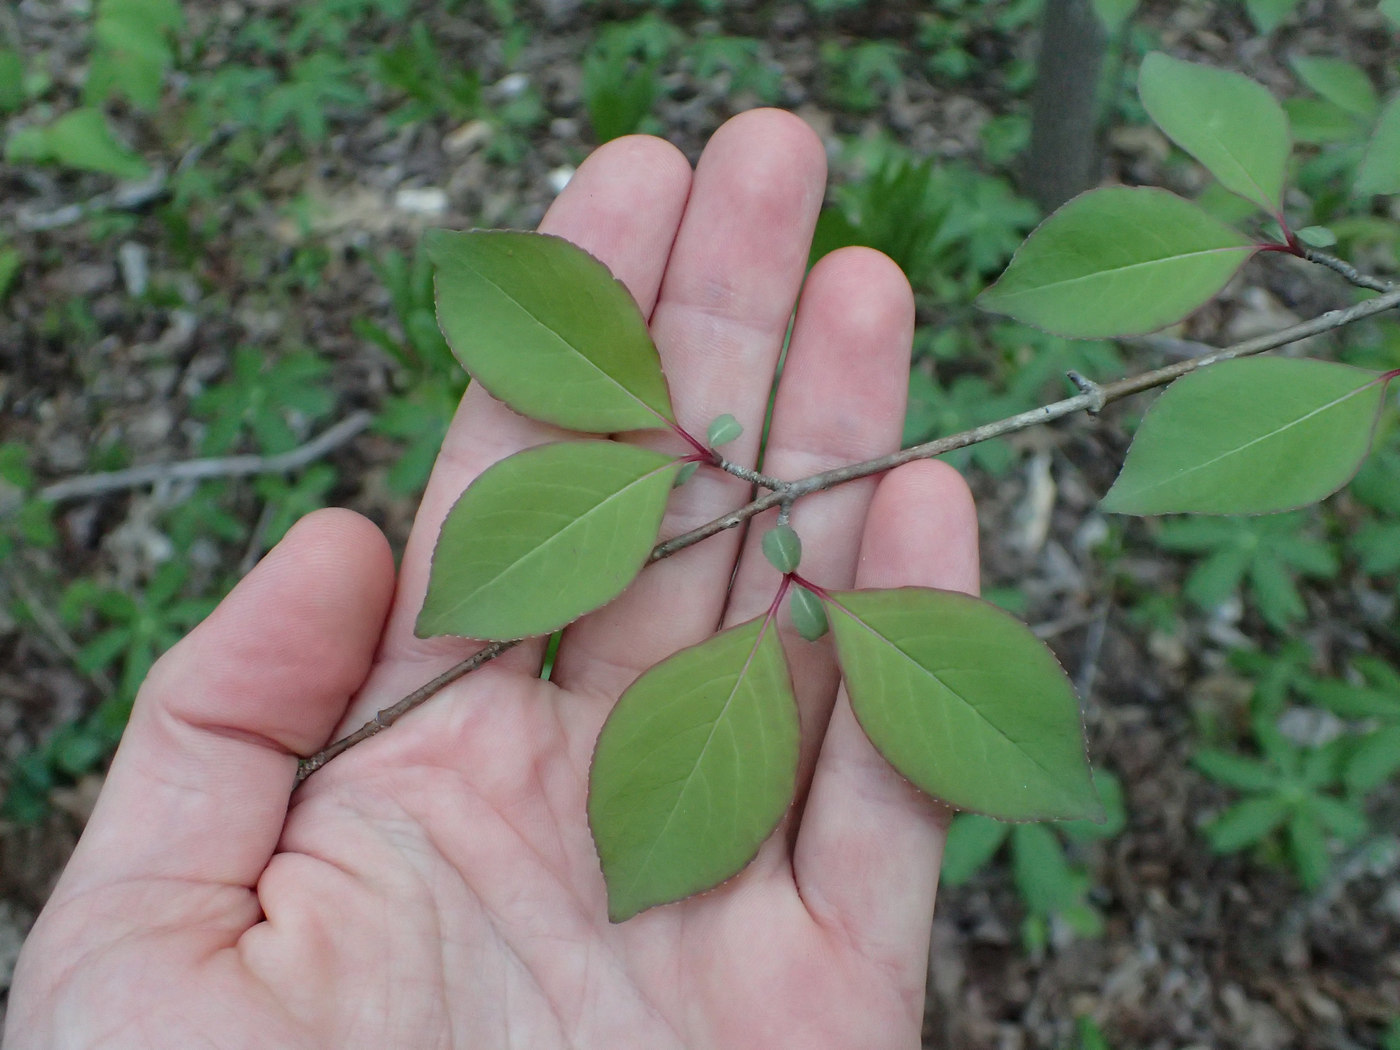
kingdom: Plantae
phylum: Tracheophyta
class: Magnoliopsida
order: Dipsacales
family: Viburnaceae
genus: Viburnum
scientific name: Viburnum prunifolium
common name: Black haw
